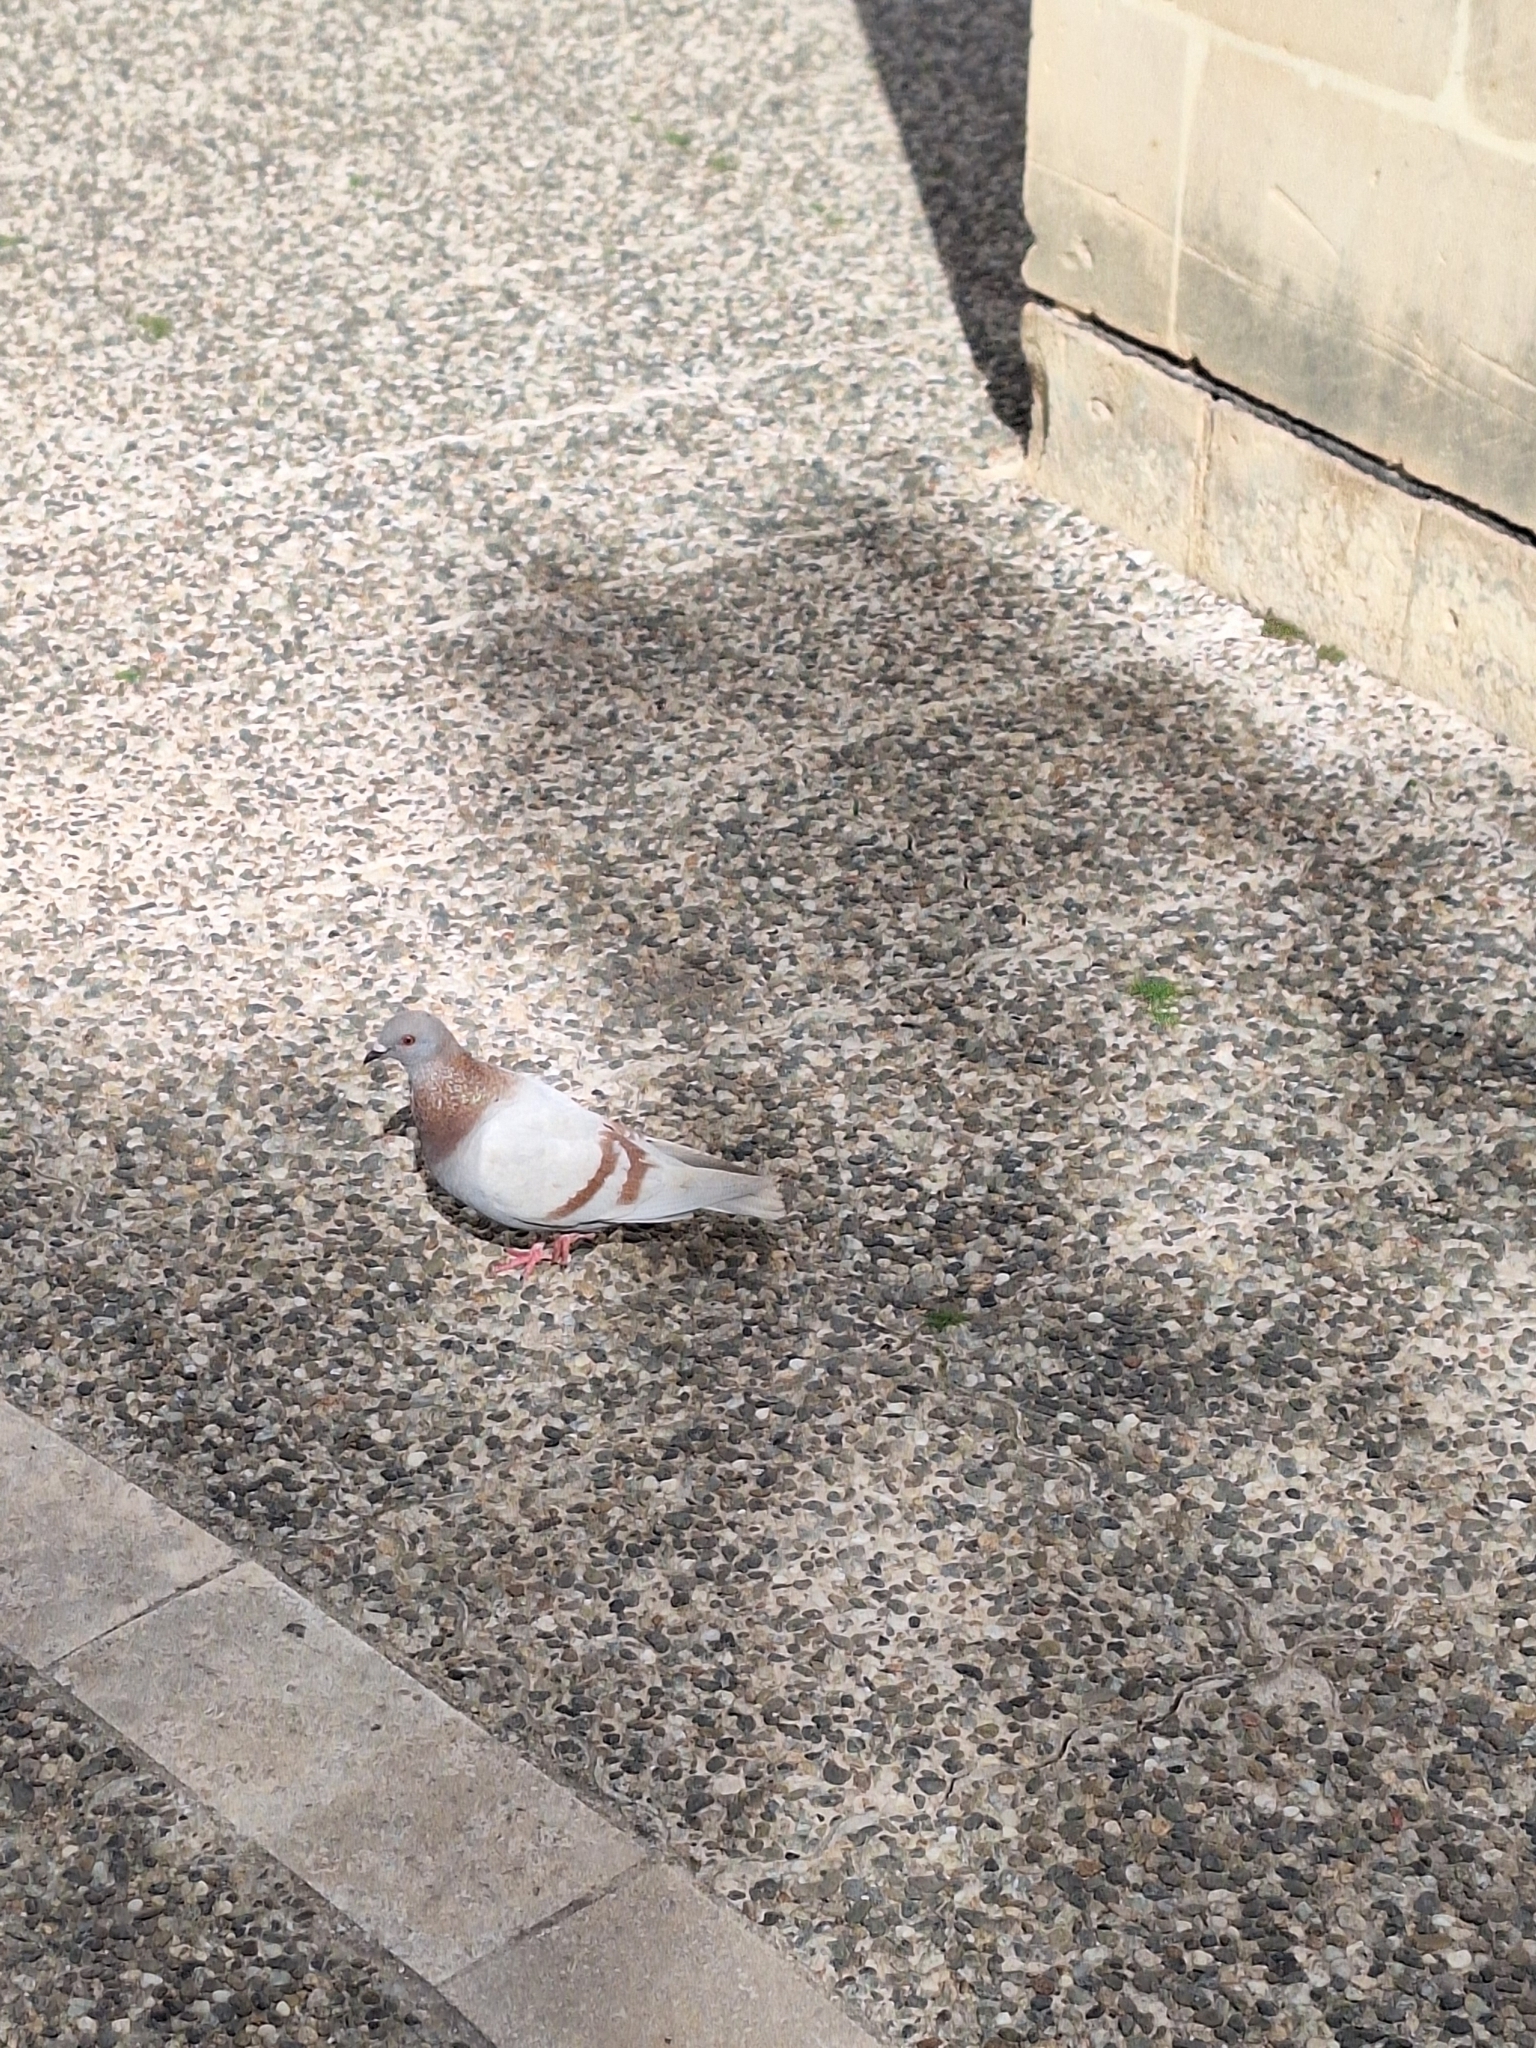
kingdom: Animalia
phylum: Chordata
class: Aves
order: Columbiformes
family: Columbidae
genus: Columba
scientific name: Columba livia
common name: Rock pigeon
